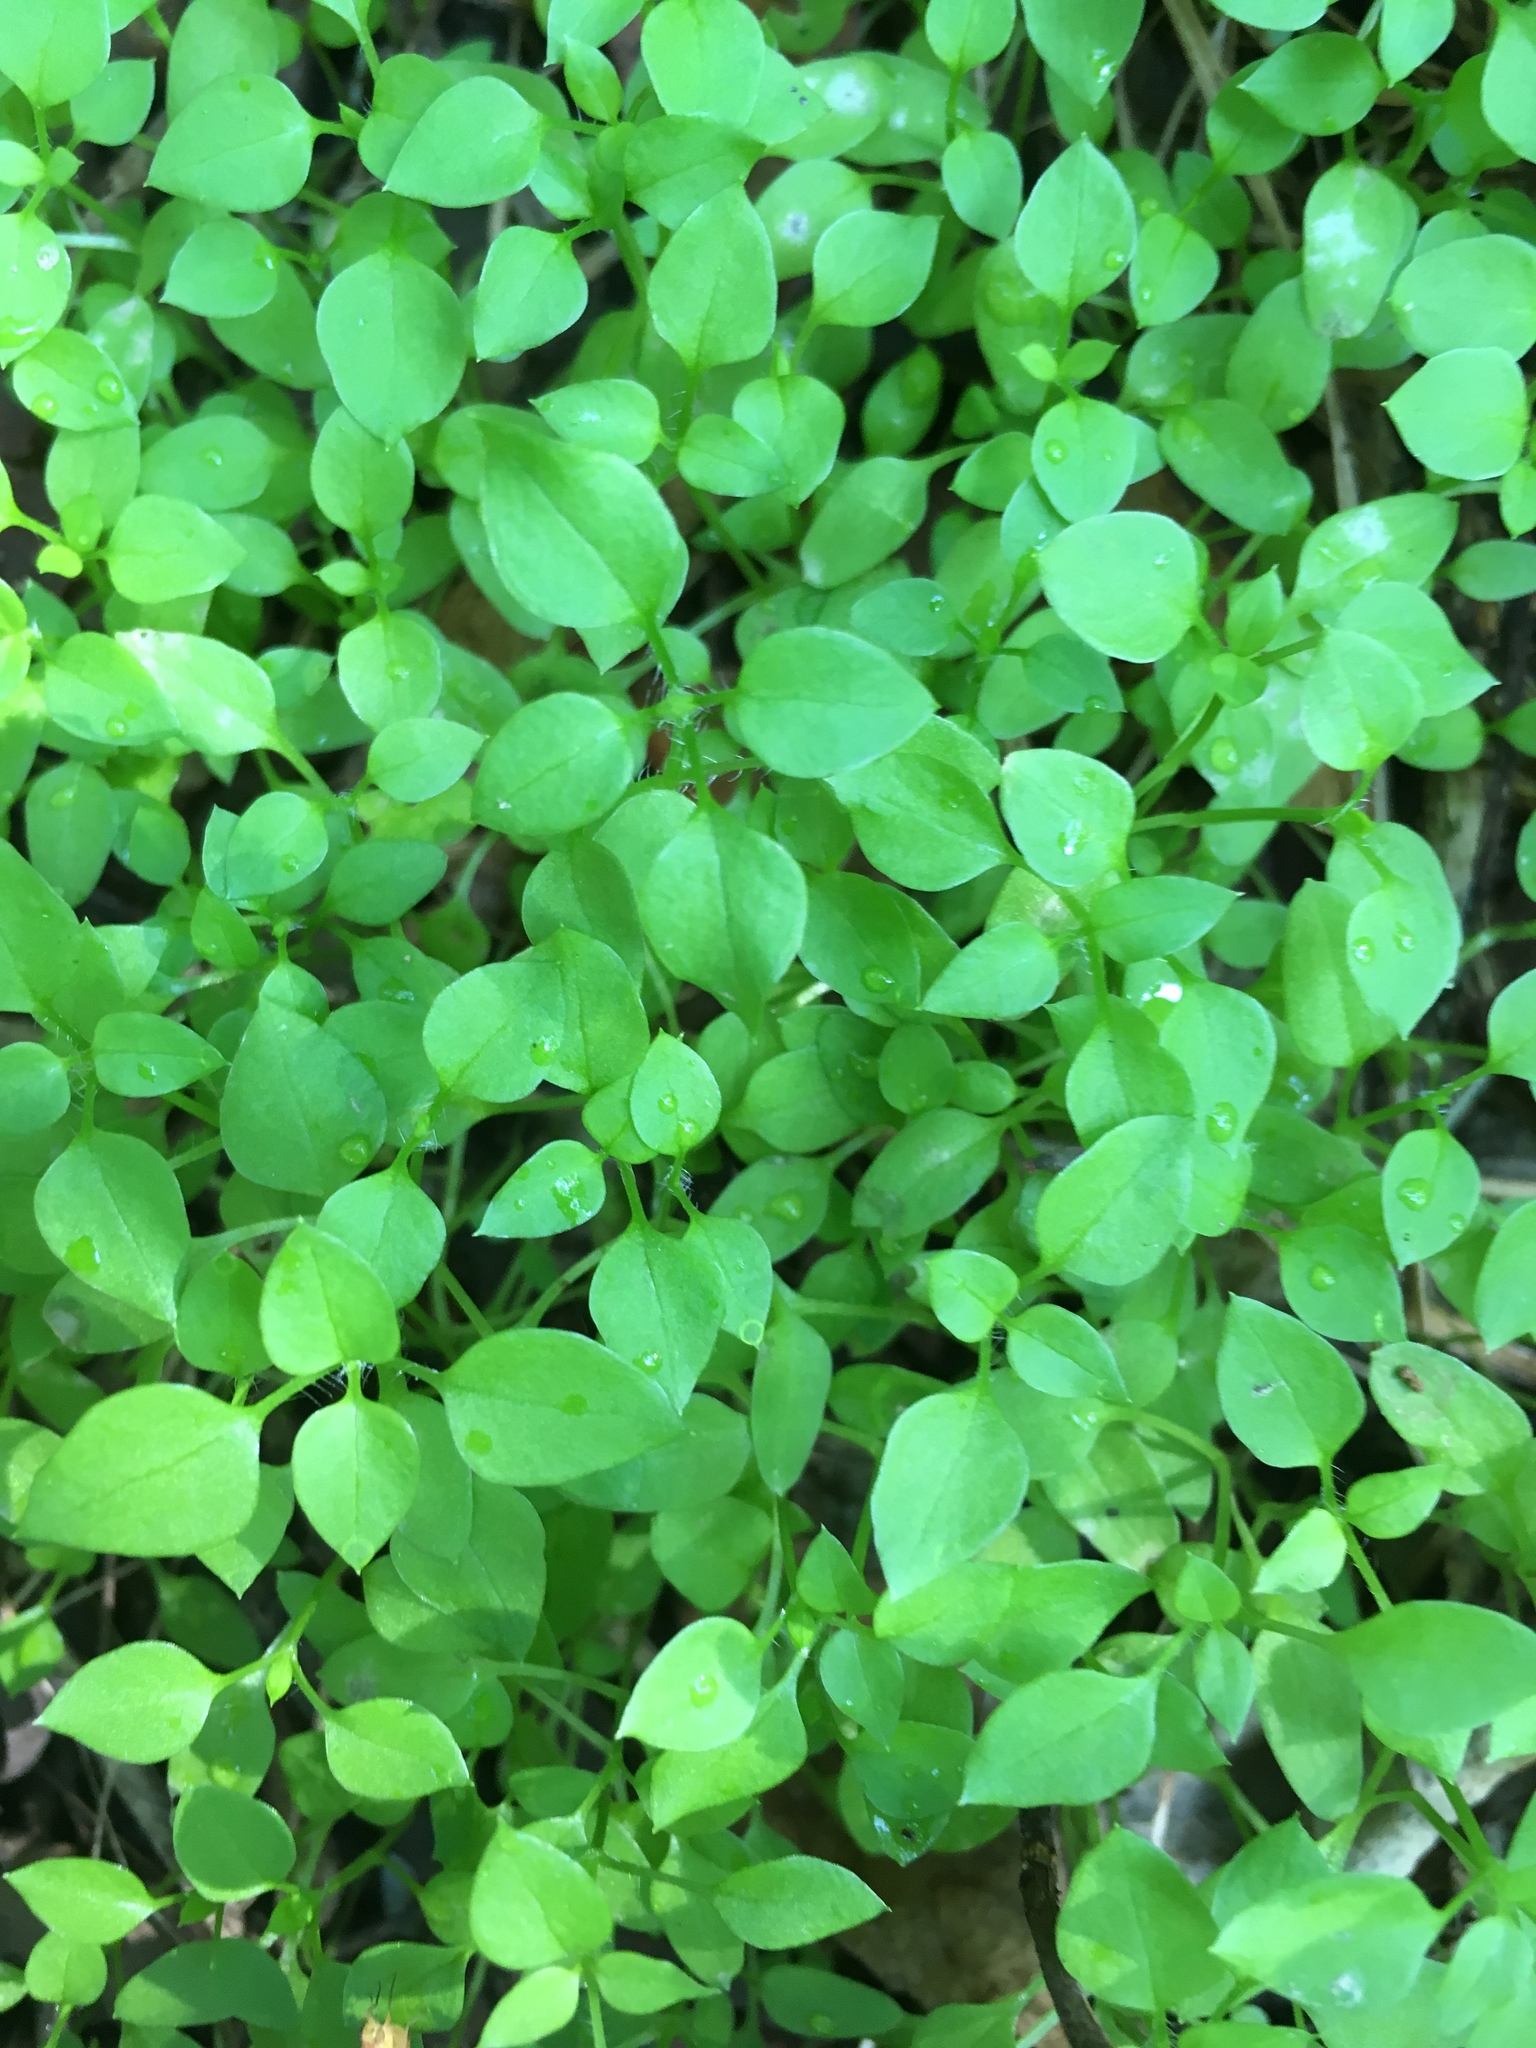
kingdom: Plantae
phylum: Tracheophyta
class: Magnoliopsida
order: Caryophyllales
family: Caryophyllaceae
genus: Stellaria
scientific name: Stellaria media
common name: Common chickweed
